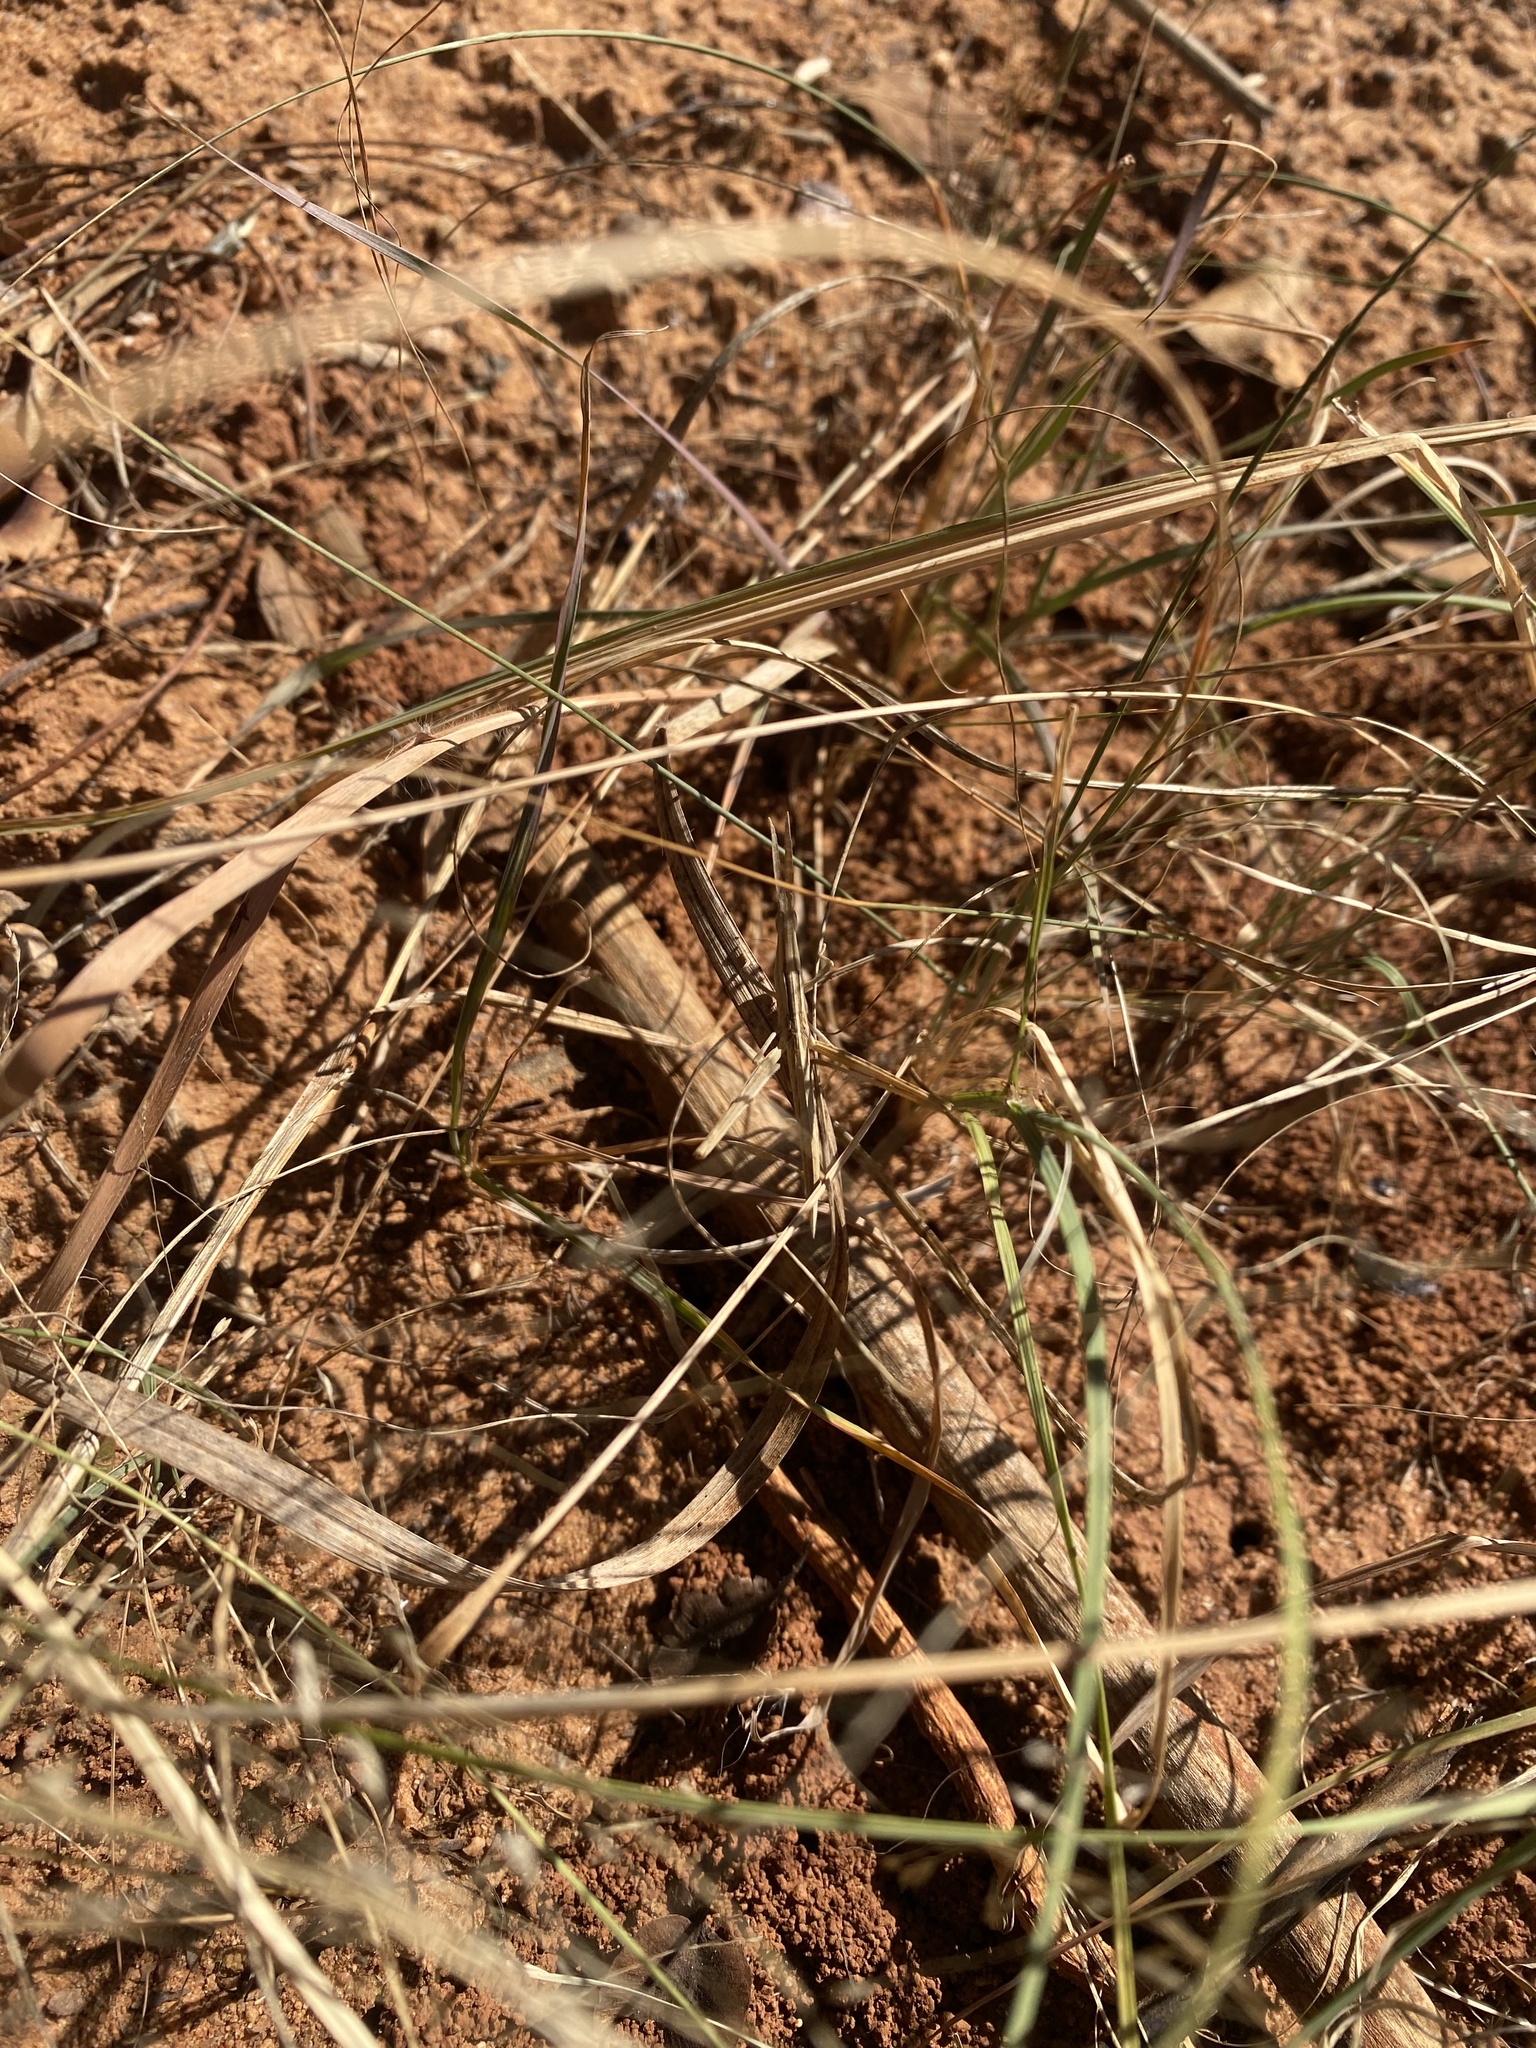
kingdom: Plantae
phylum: Tracheophyta
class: Liliopsida
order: Poales
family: Poaceae
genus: Chloris
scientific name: Chloris gayana
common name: Rhodes grass
